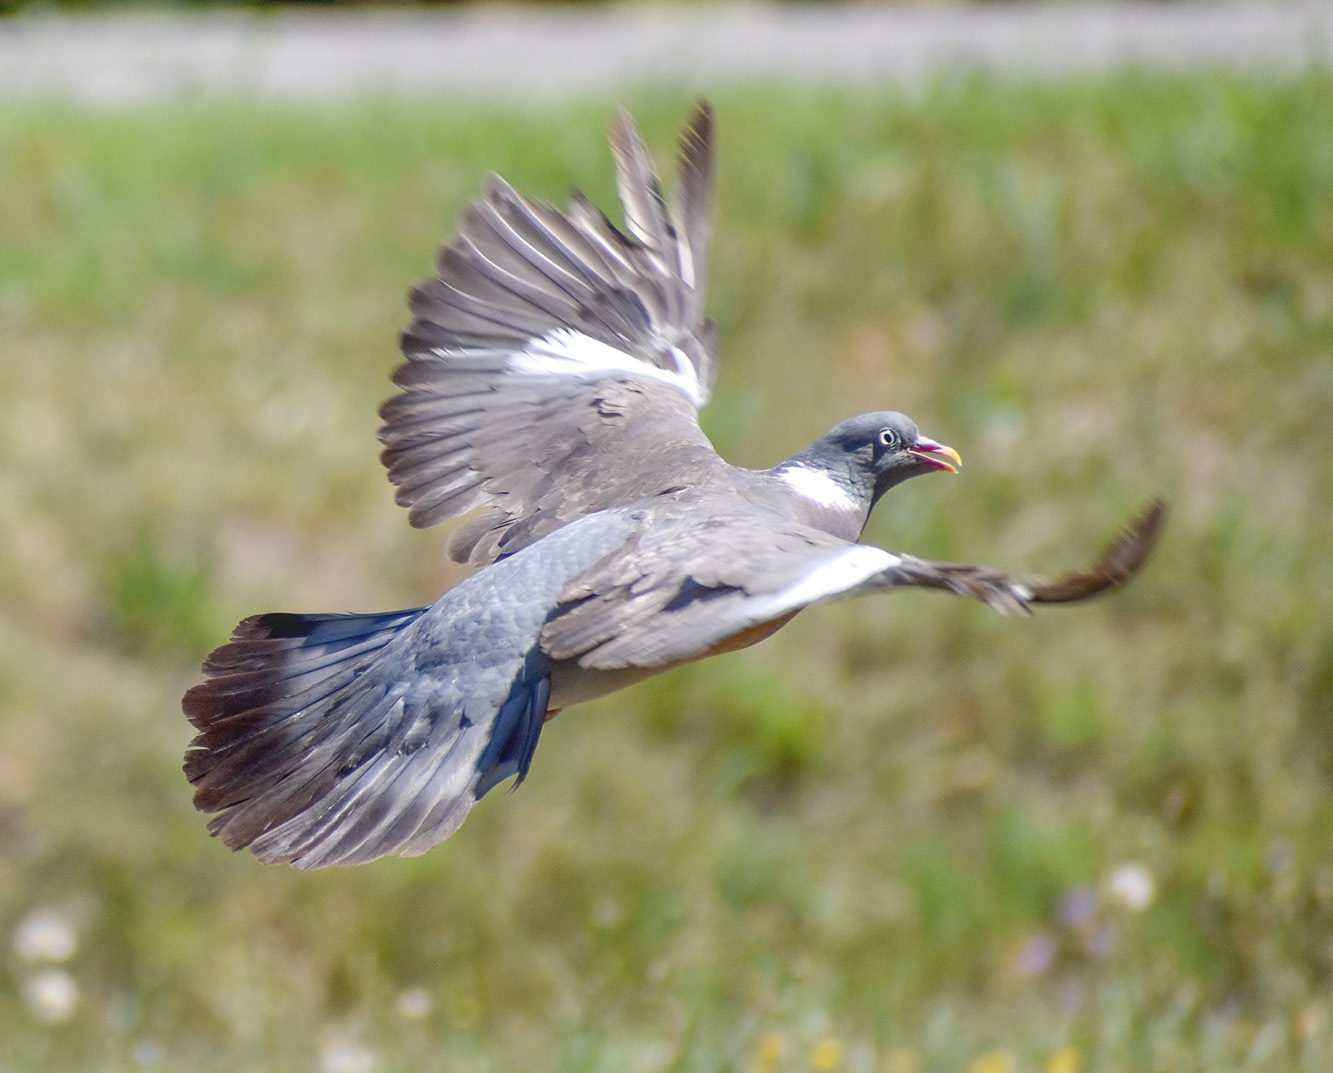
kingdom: Animalia
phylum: Chordata
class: Aves
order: Columbiformes
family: Columbidae
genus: Columba
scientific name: Columba palumbus
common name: Common wood pigeon
